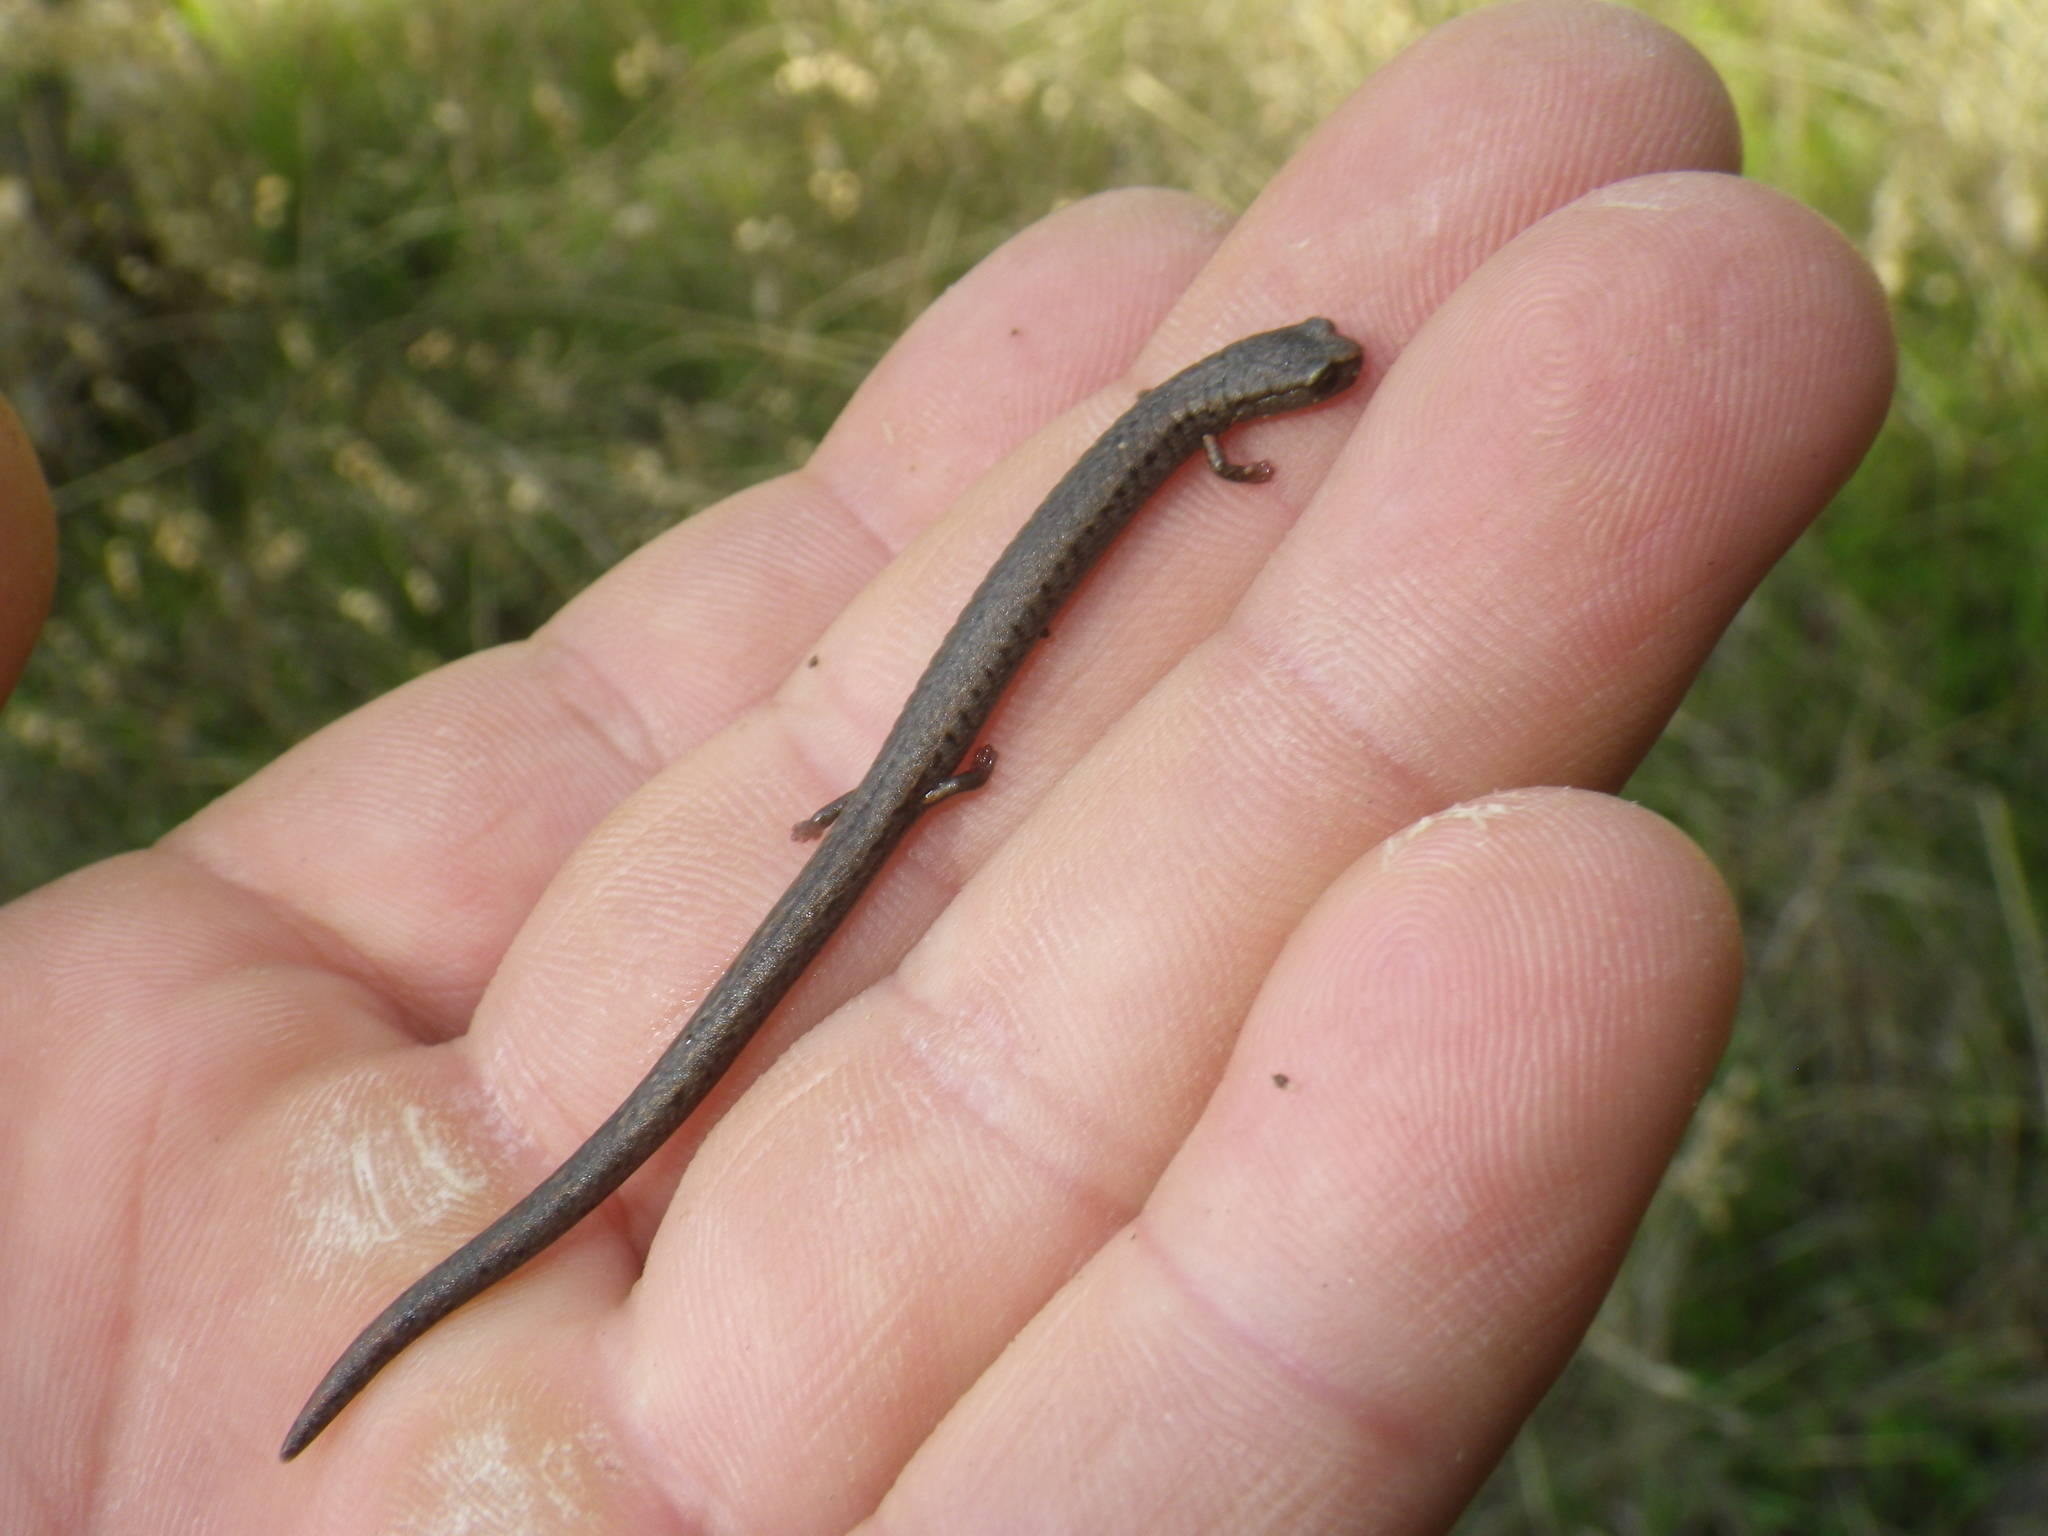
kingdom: Animalia
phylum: Chordata
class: Amphibia
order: Caudata
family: Plethodontidae
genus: Batrachoseps
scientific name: Batrachoseps attenuatus
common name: California slender salamander
